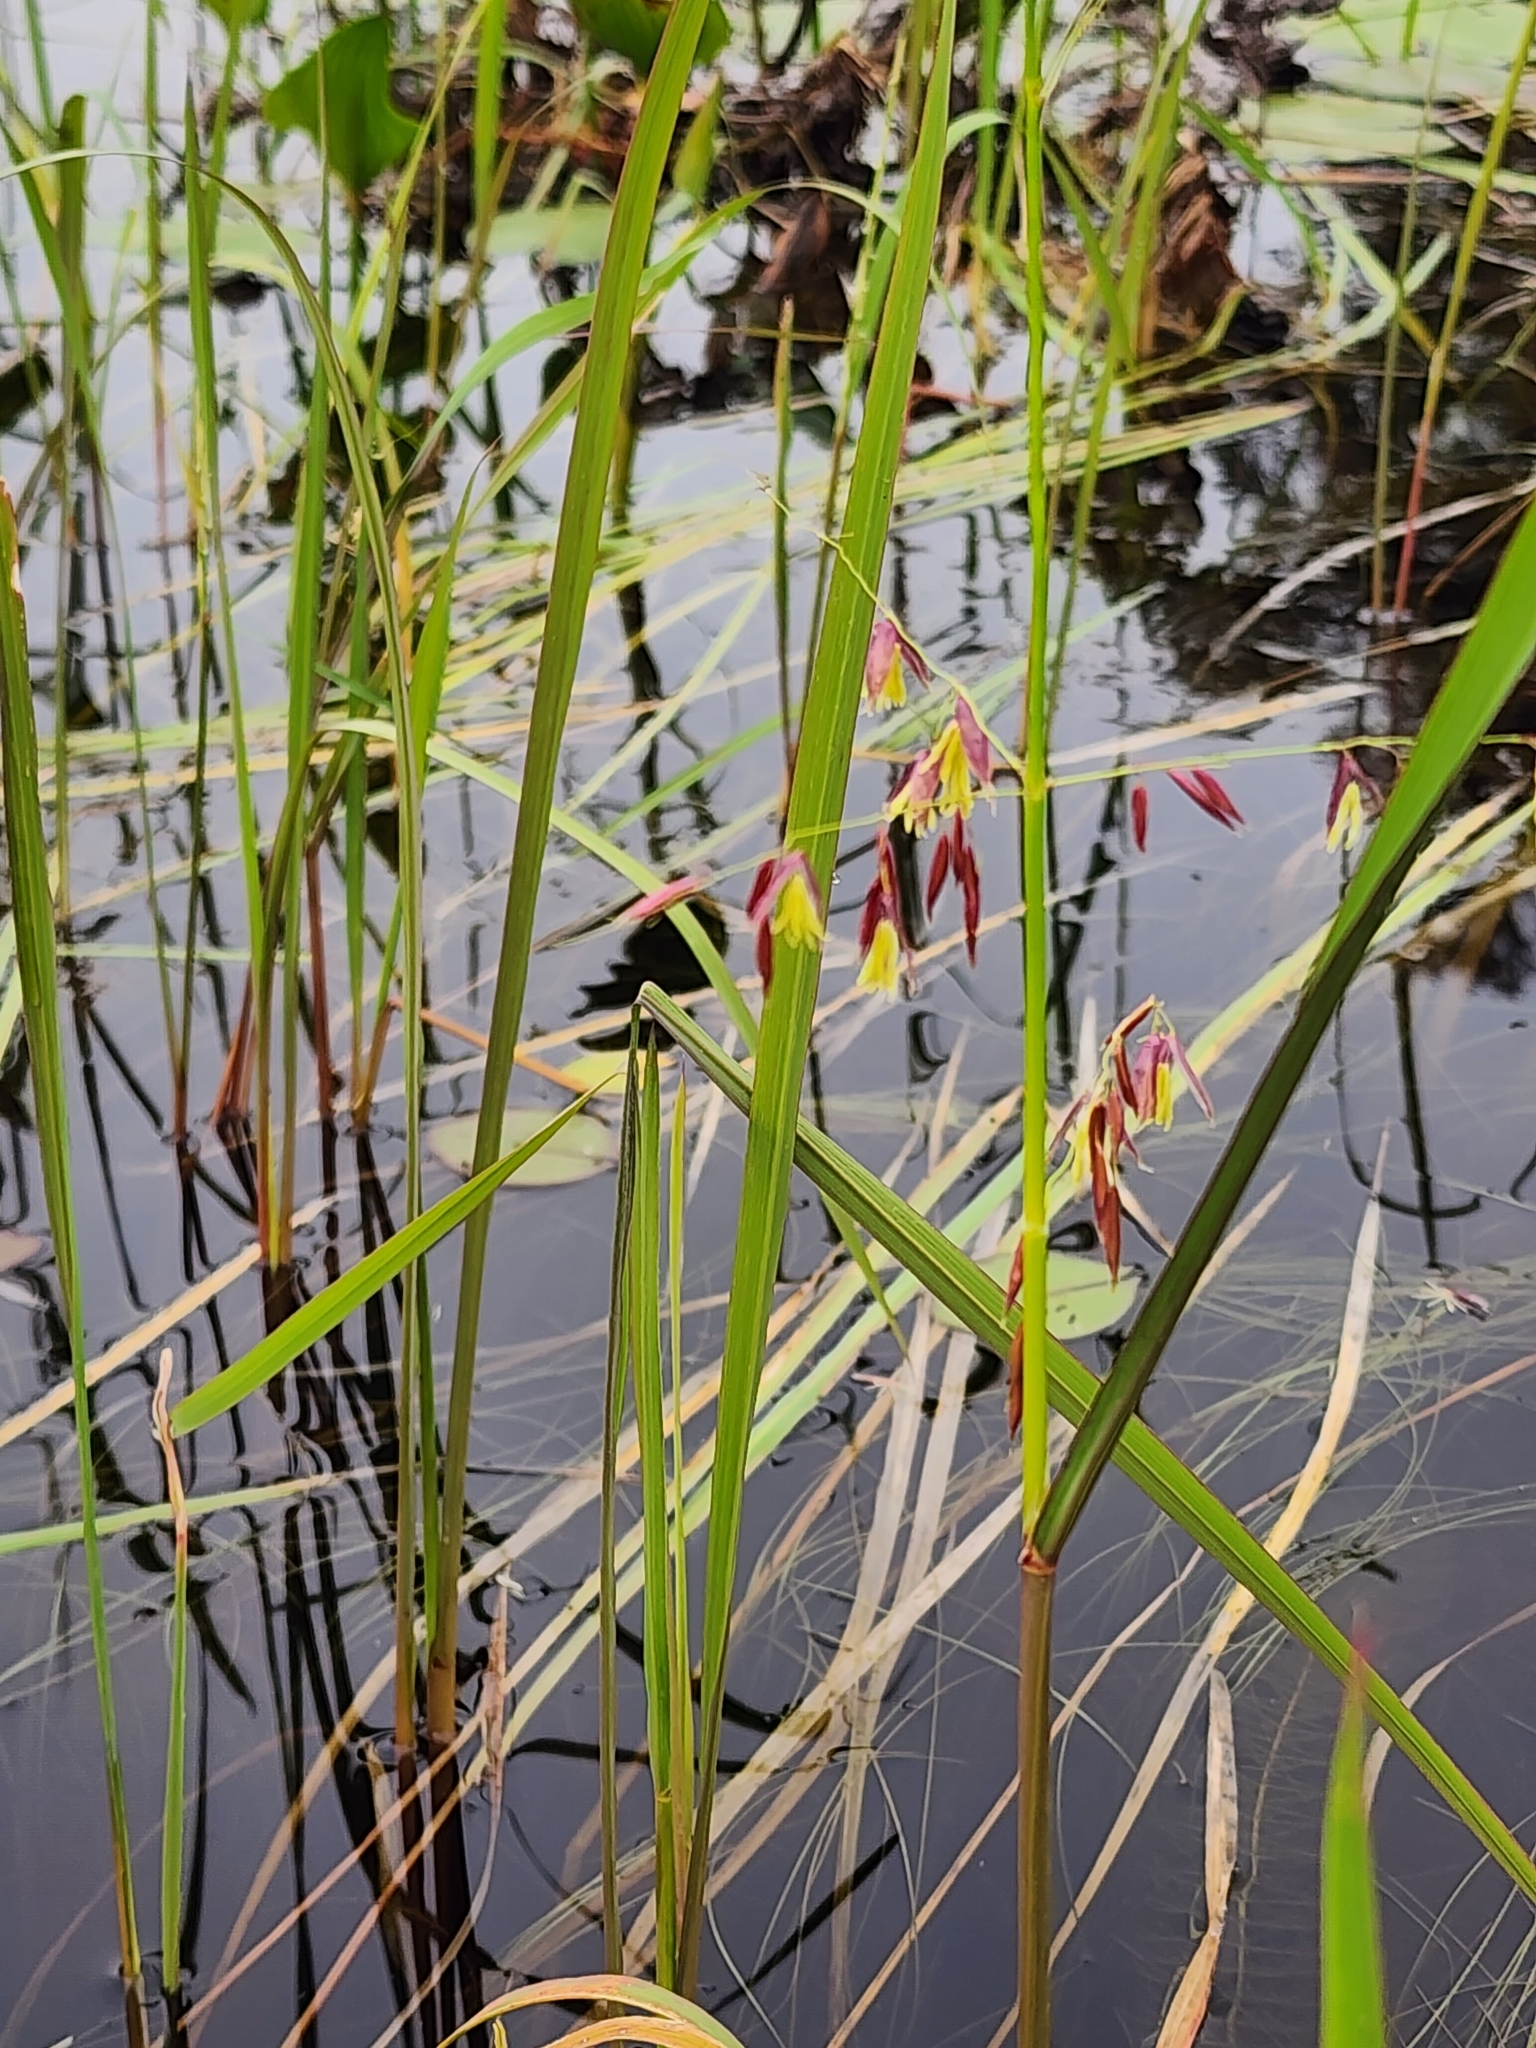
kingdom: Plantae
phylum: Tracheophyta
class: Liliopsida
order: Poales
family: Poaceae
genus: Zizania
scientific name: Zizania palustris
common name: Northern wild rice
